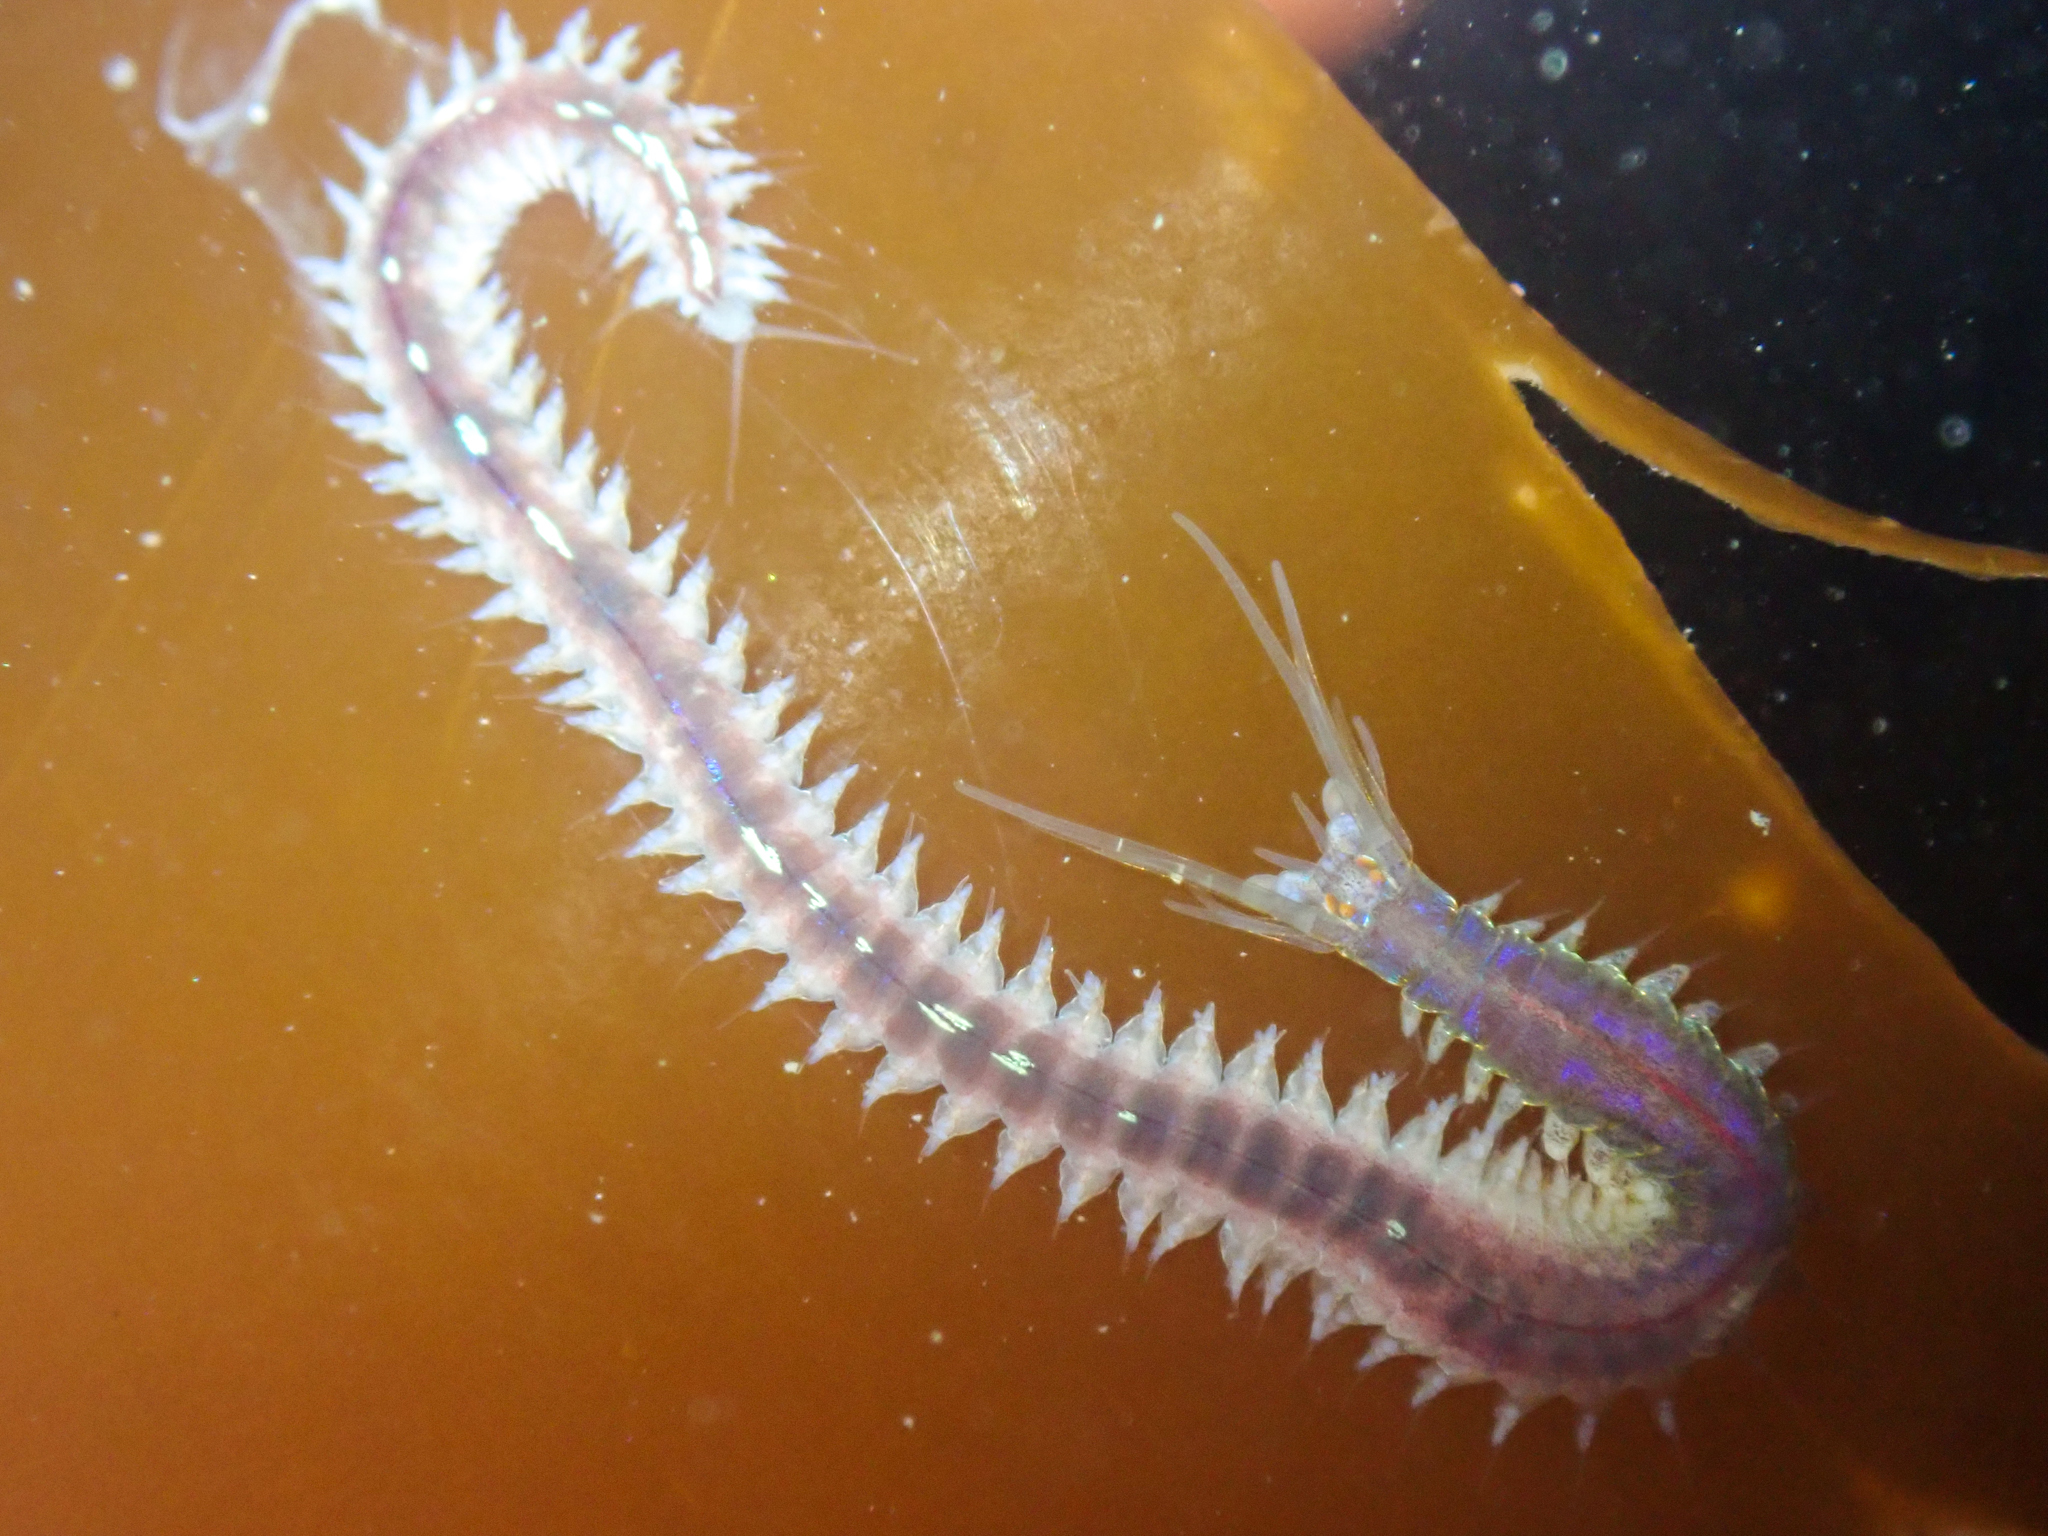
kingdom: Animalia
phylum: Annelida
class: Polychaeta
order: Phyllodocida
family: Nereididae
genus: Platynereis
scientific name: Platynereis bicanaliculata
